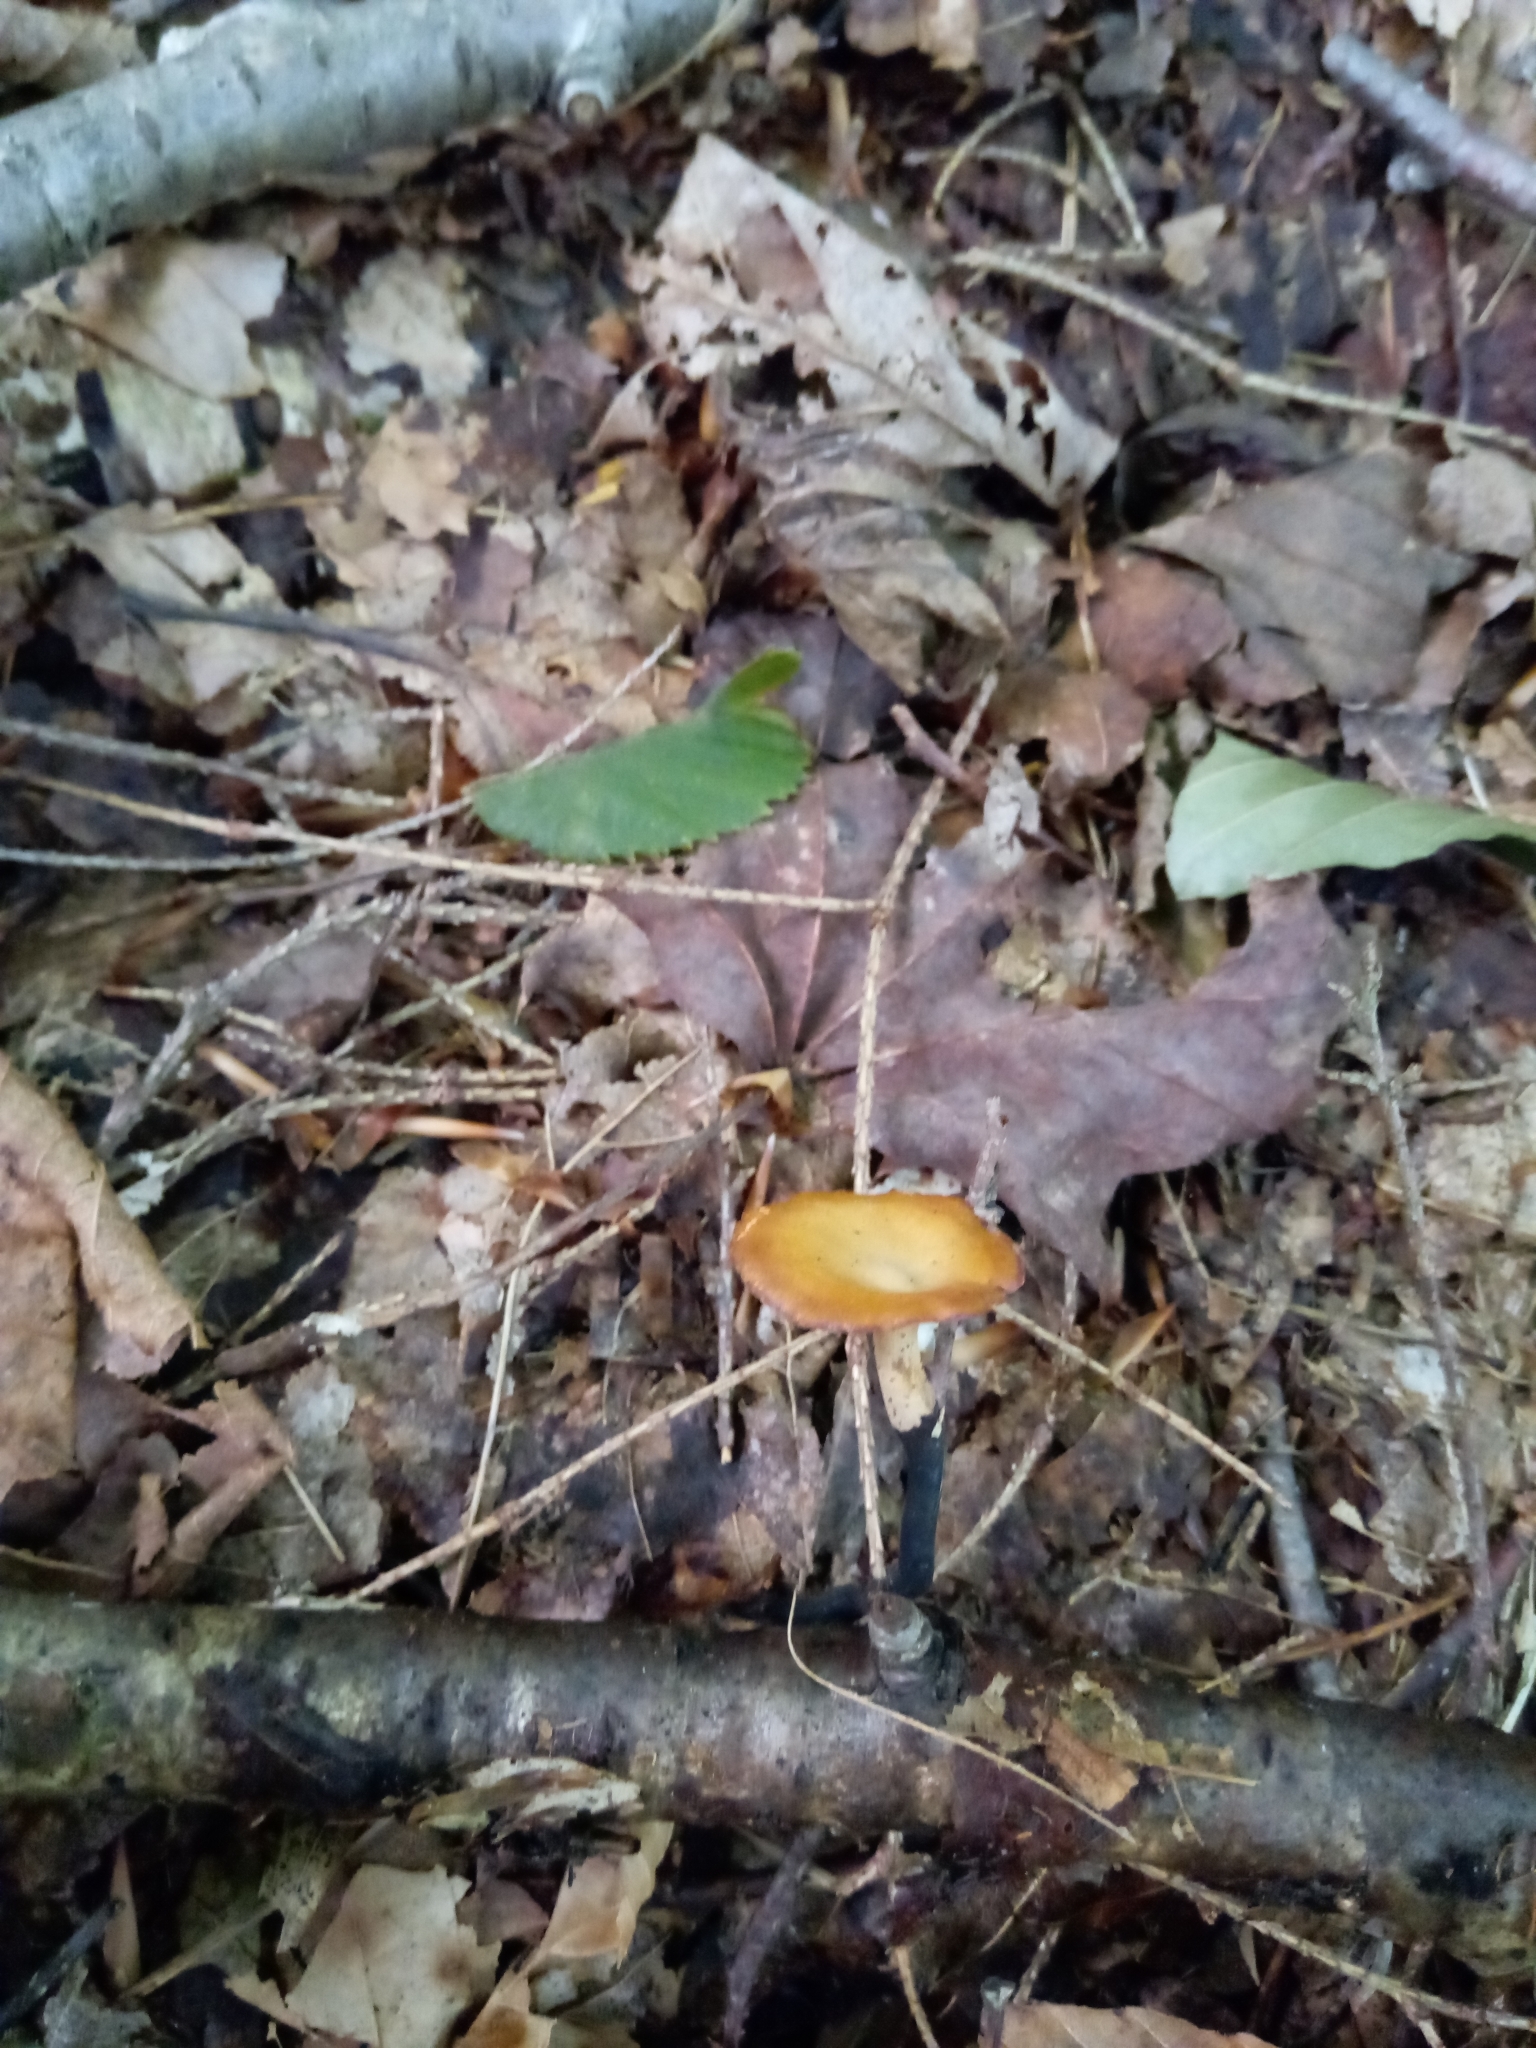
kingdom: Fungi
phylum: Basidiomycota
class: Agaricomycetes
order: Polyporales
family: Polyporaceae
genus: Cerioporus
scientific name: Cerioporus leptocephalus
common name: Blackfoot polypore
